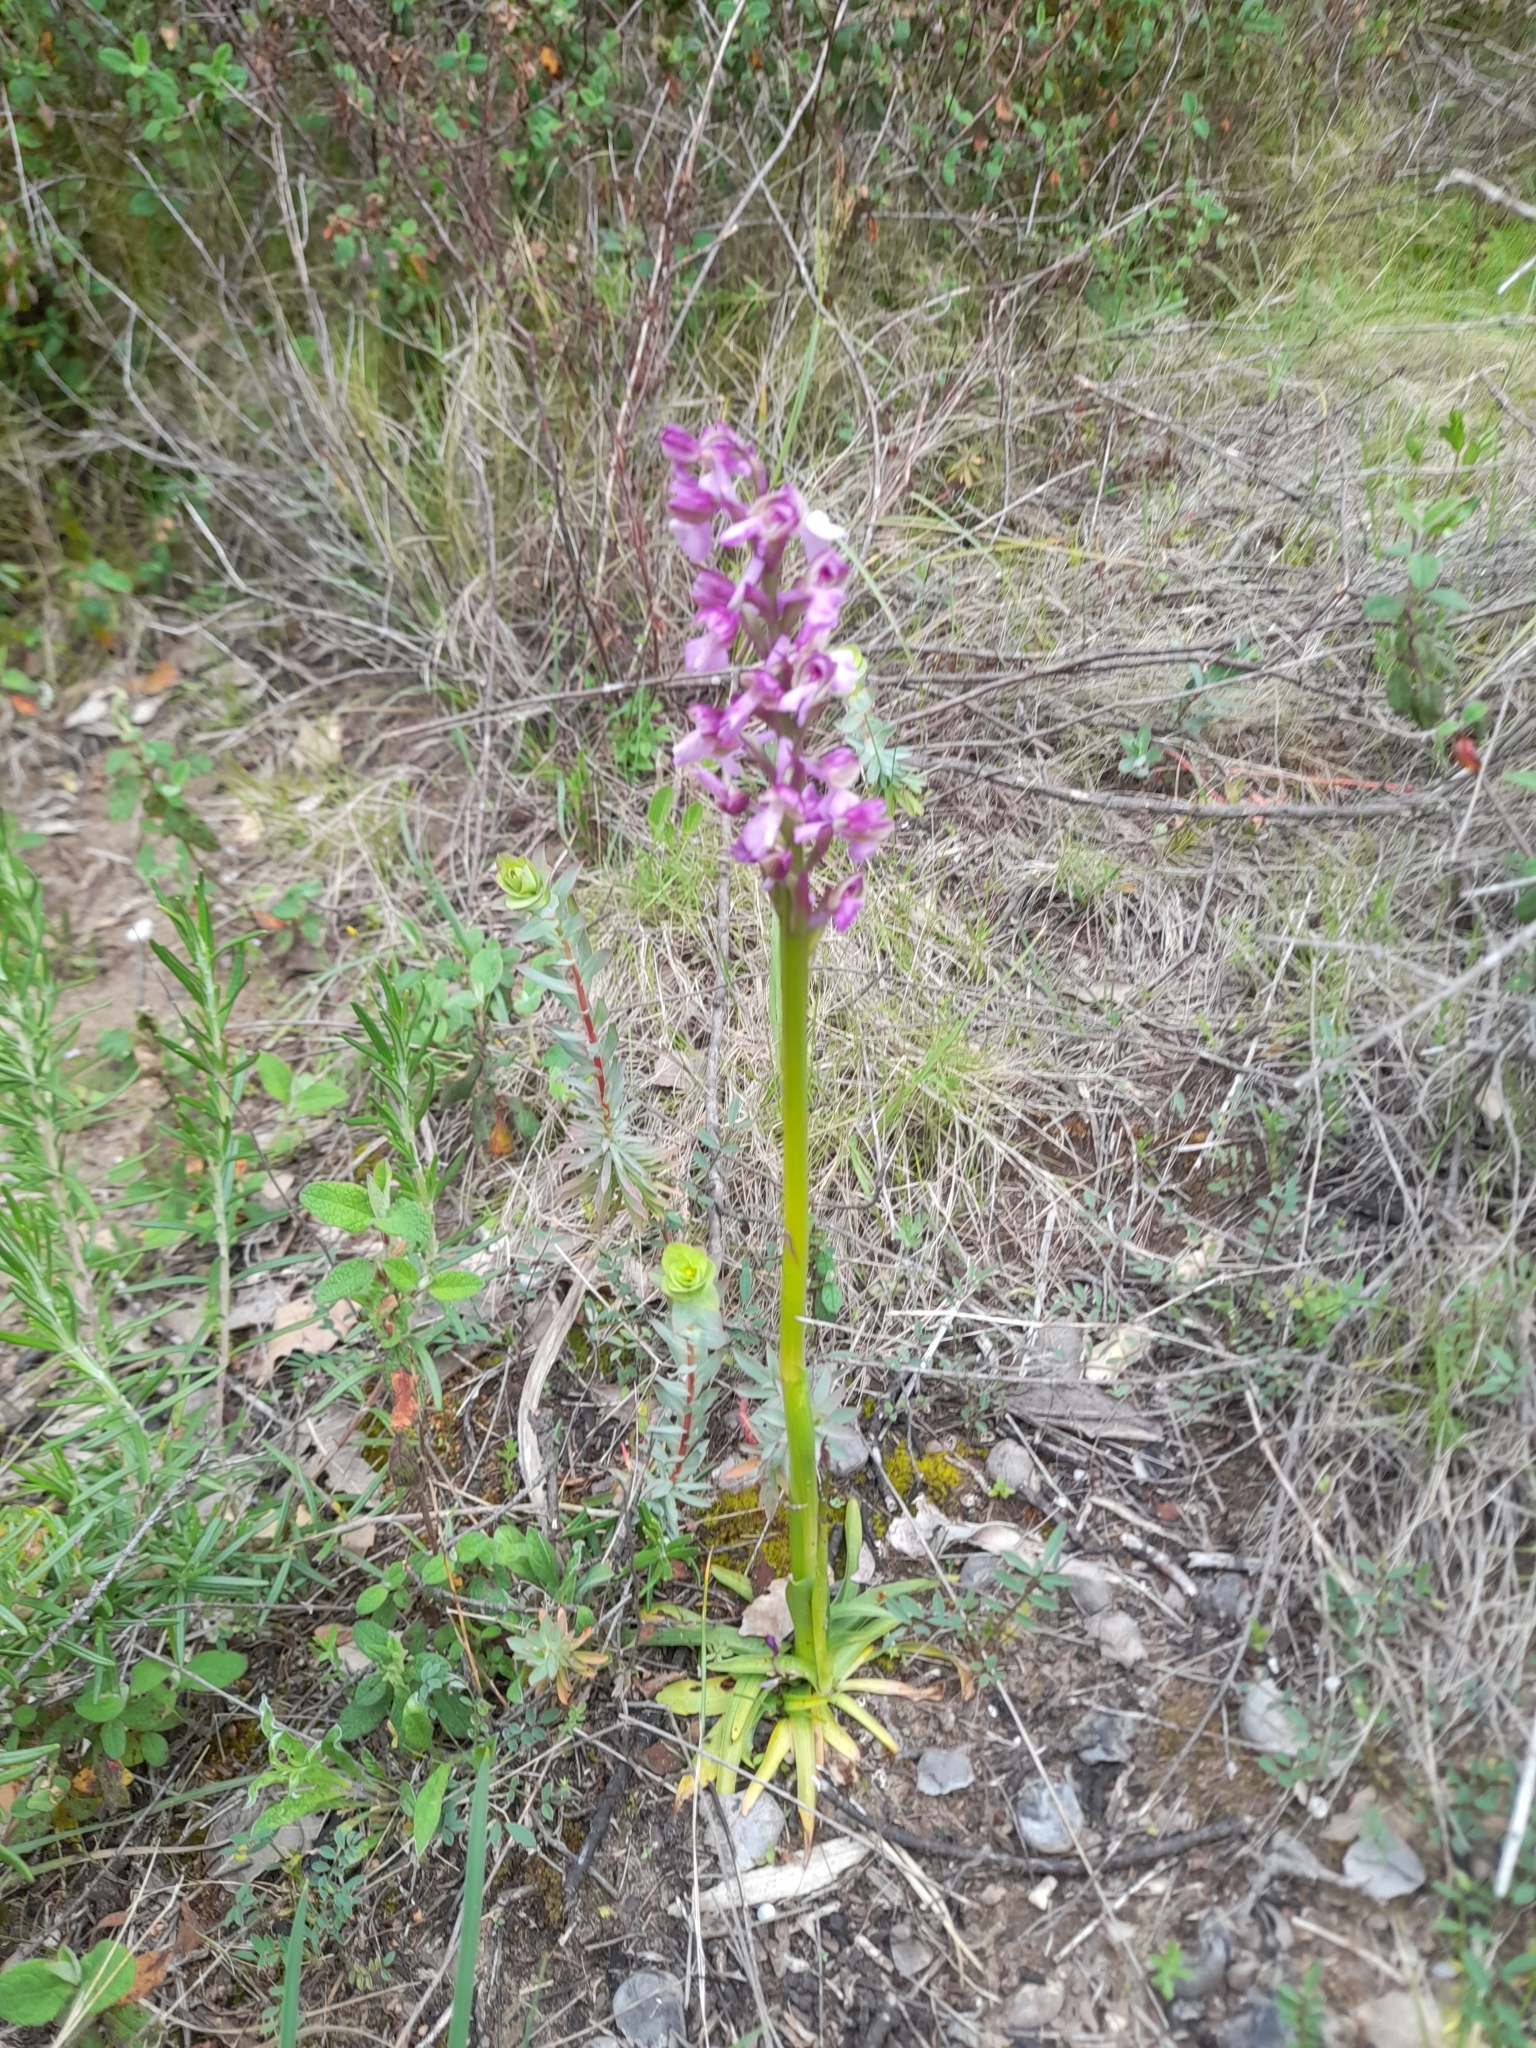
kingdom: Plantae
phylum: Tracheophyta
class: Liliopsida
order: Asparagales
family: Orchidaceae
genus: Anacamptis
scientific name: Anacamptis morio
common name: Green-winged orchid
